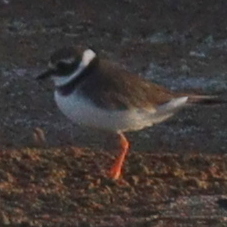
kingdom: Animalia
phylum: Chordata
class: Aves
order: Charadriiformes
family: Charadriidae
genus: Charadrius
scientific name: Charadrius hiaticula
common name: Common ringed plover
